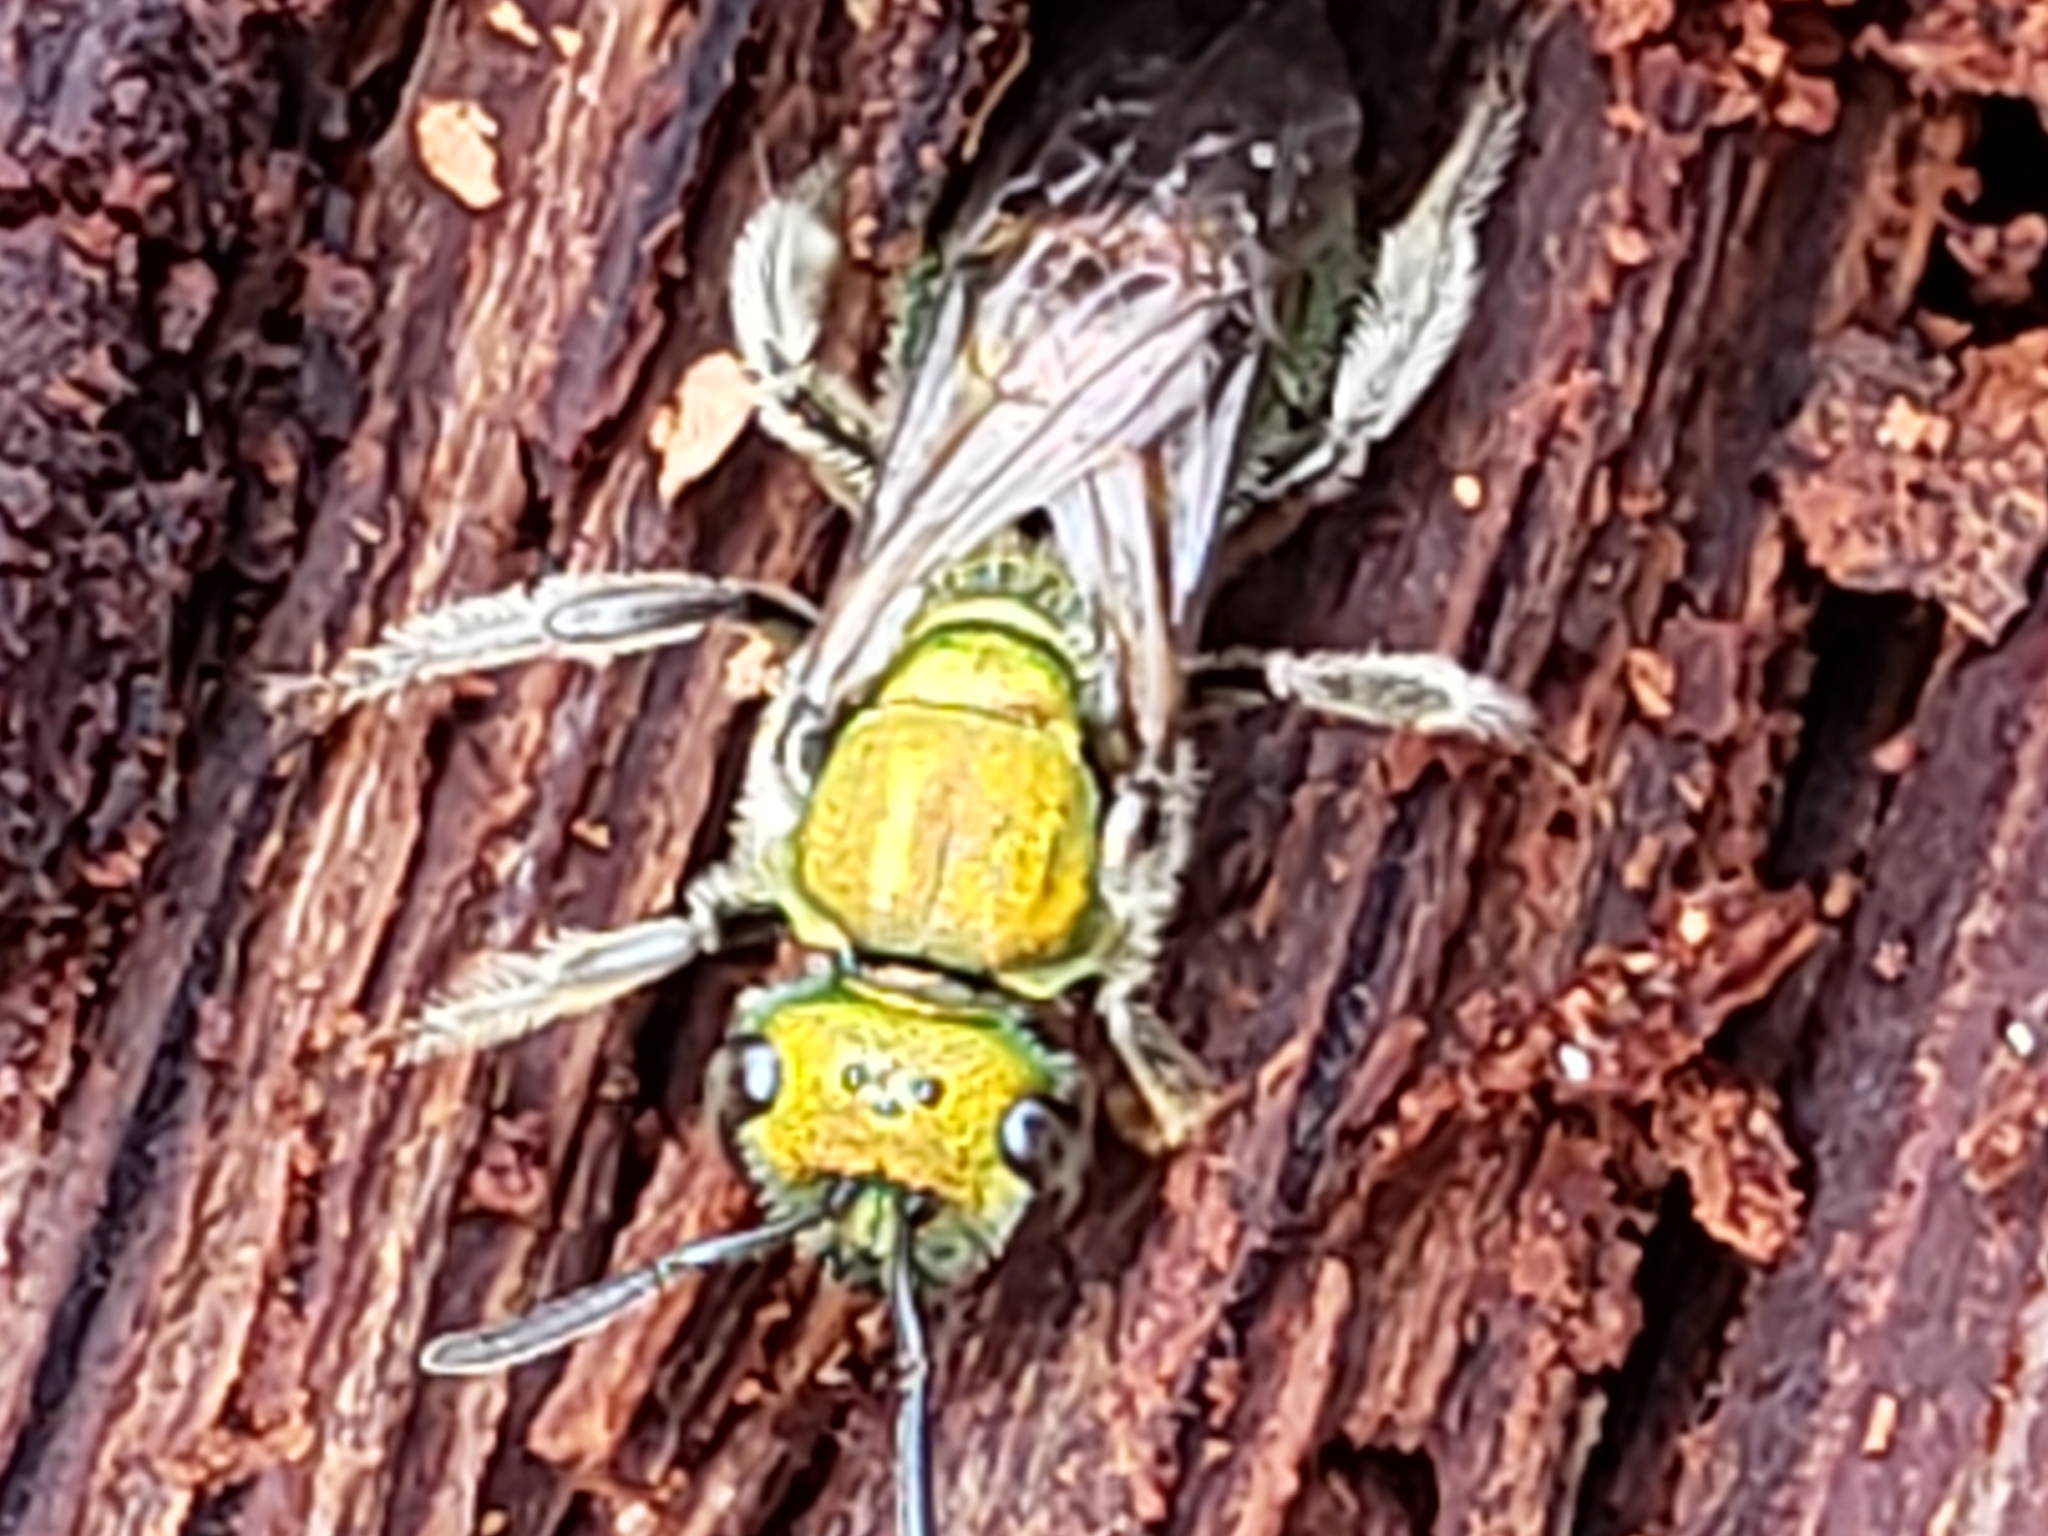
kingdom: Animalia
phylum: Arthropoda
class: Insecta
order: Hymenoptera
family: Halictidae
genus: Augochlora
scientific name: Augochlora pura
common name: Pure green sweat bee
